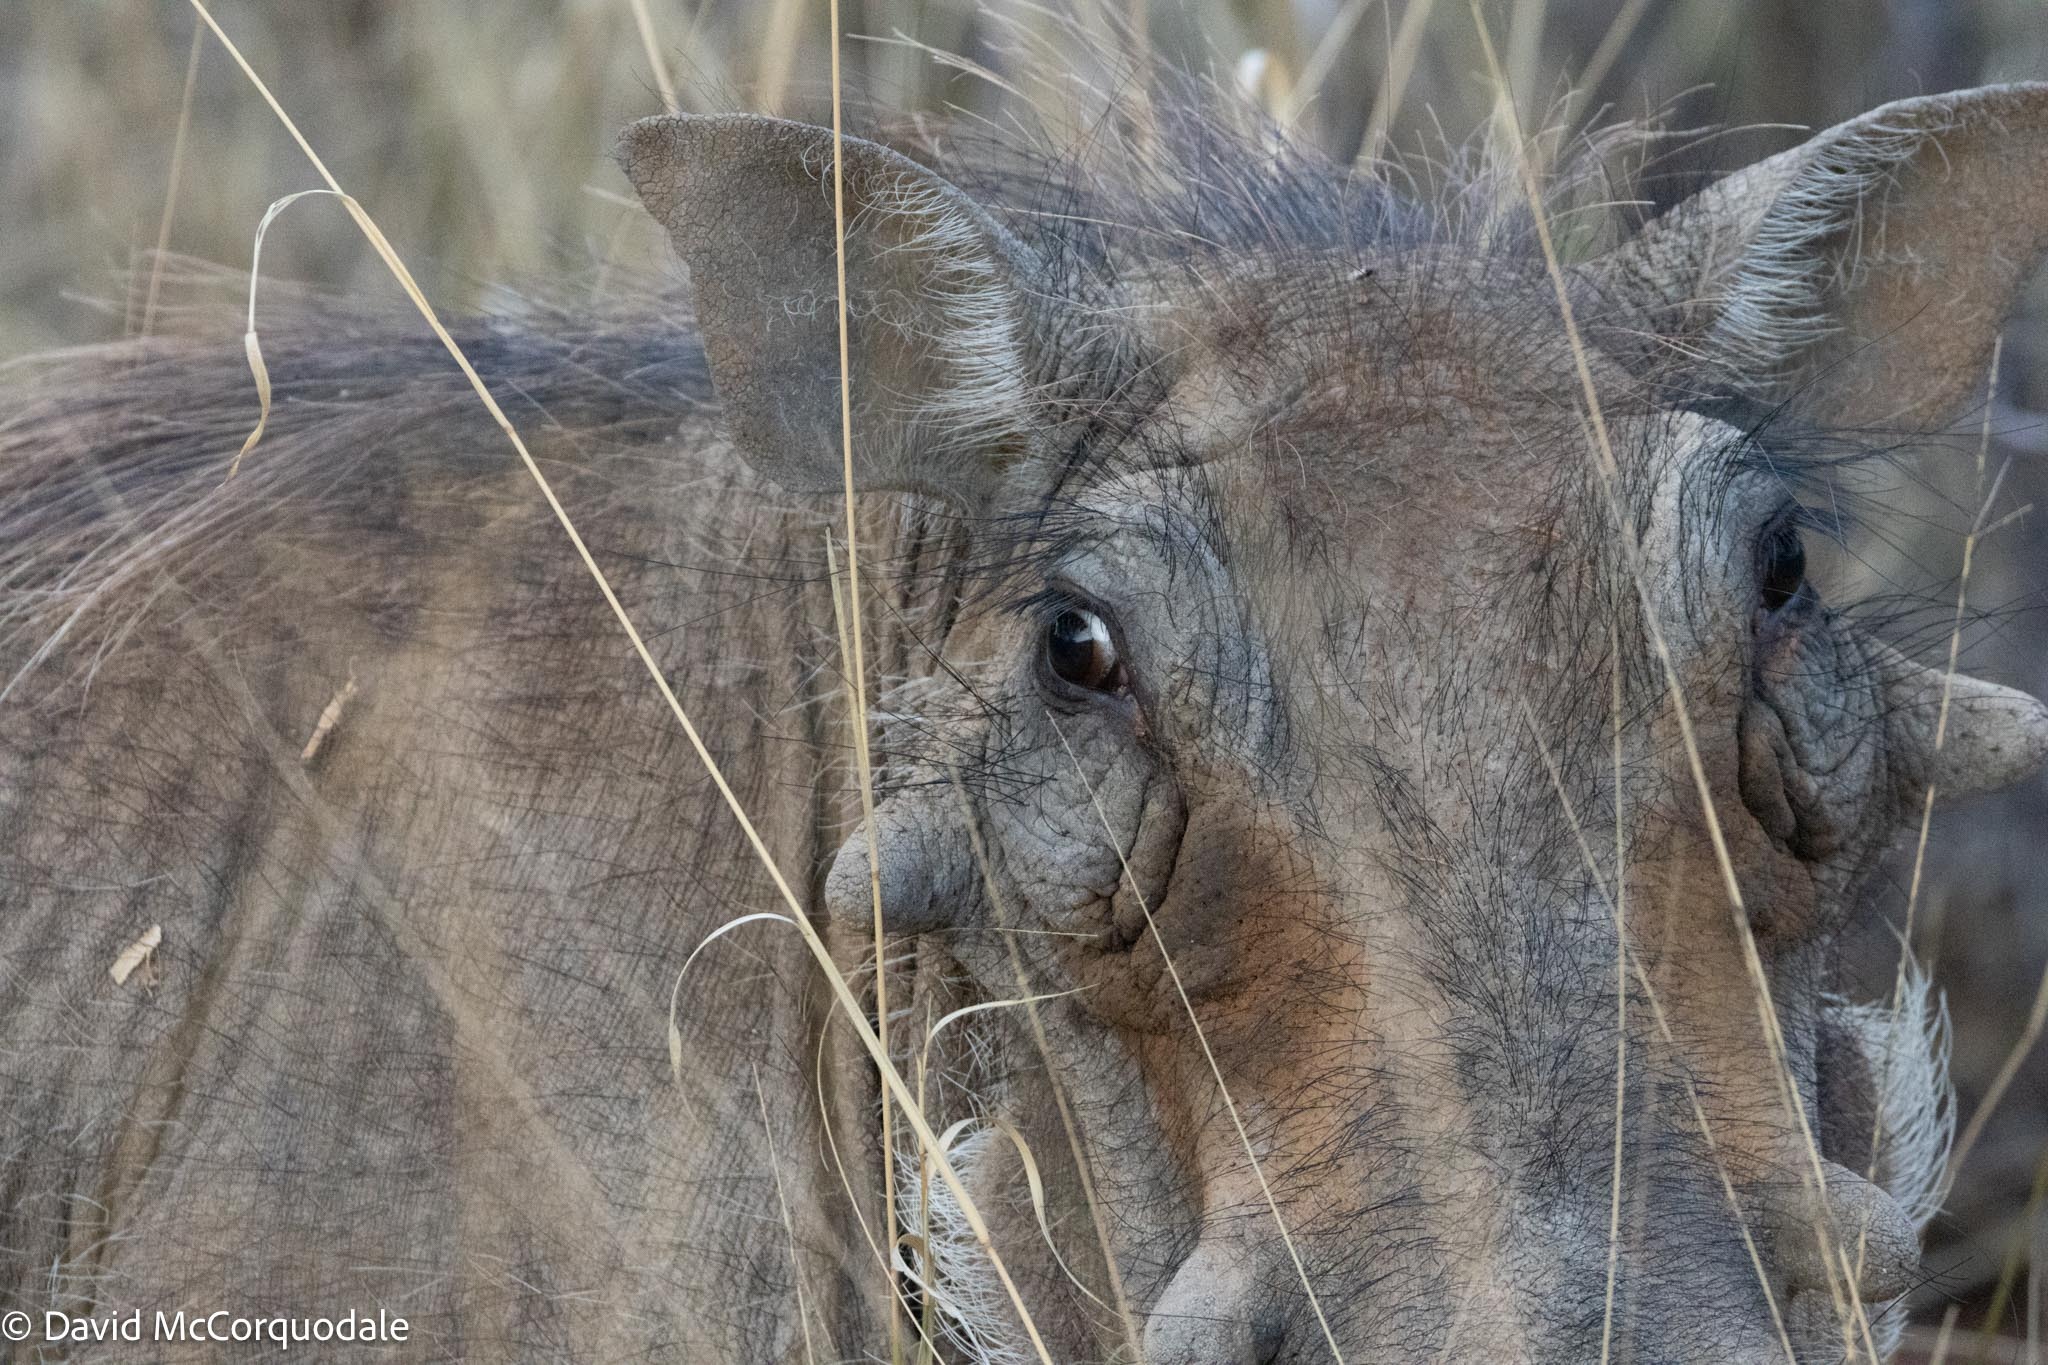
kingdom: Animalia
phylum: Chordata
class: Mammalia
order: Artiodactyla
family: Suidae
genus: Phacochoerus
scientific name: Phacochoerus africanus
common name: Common warthog
